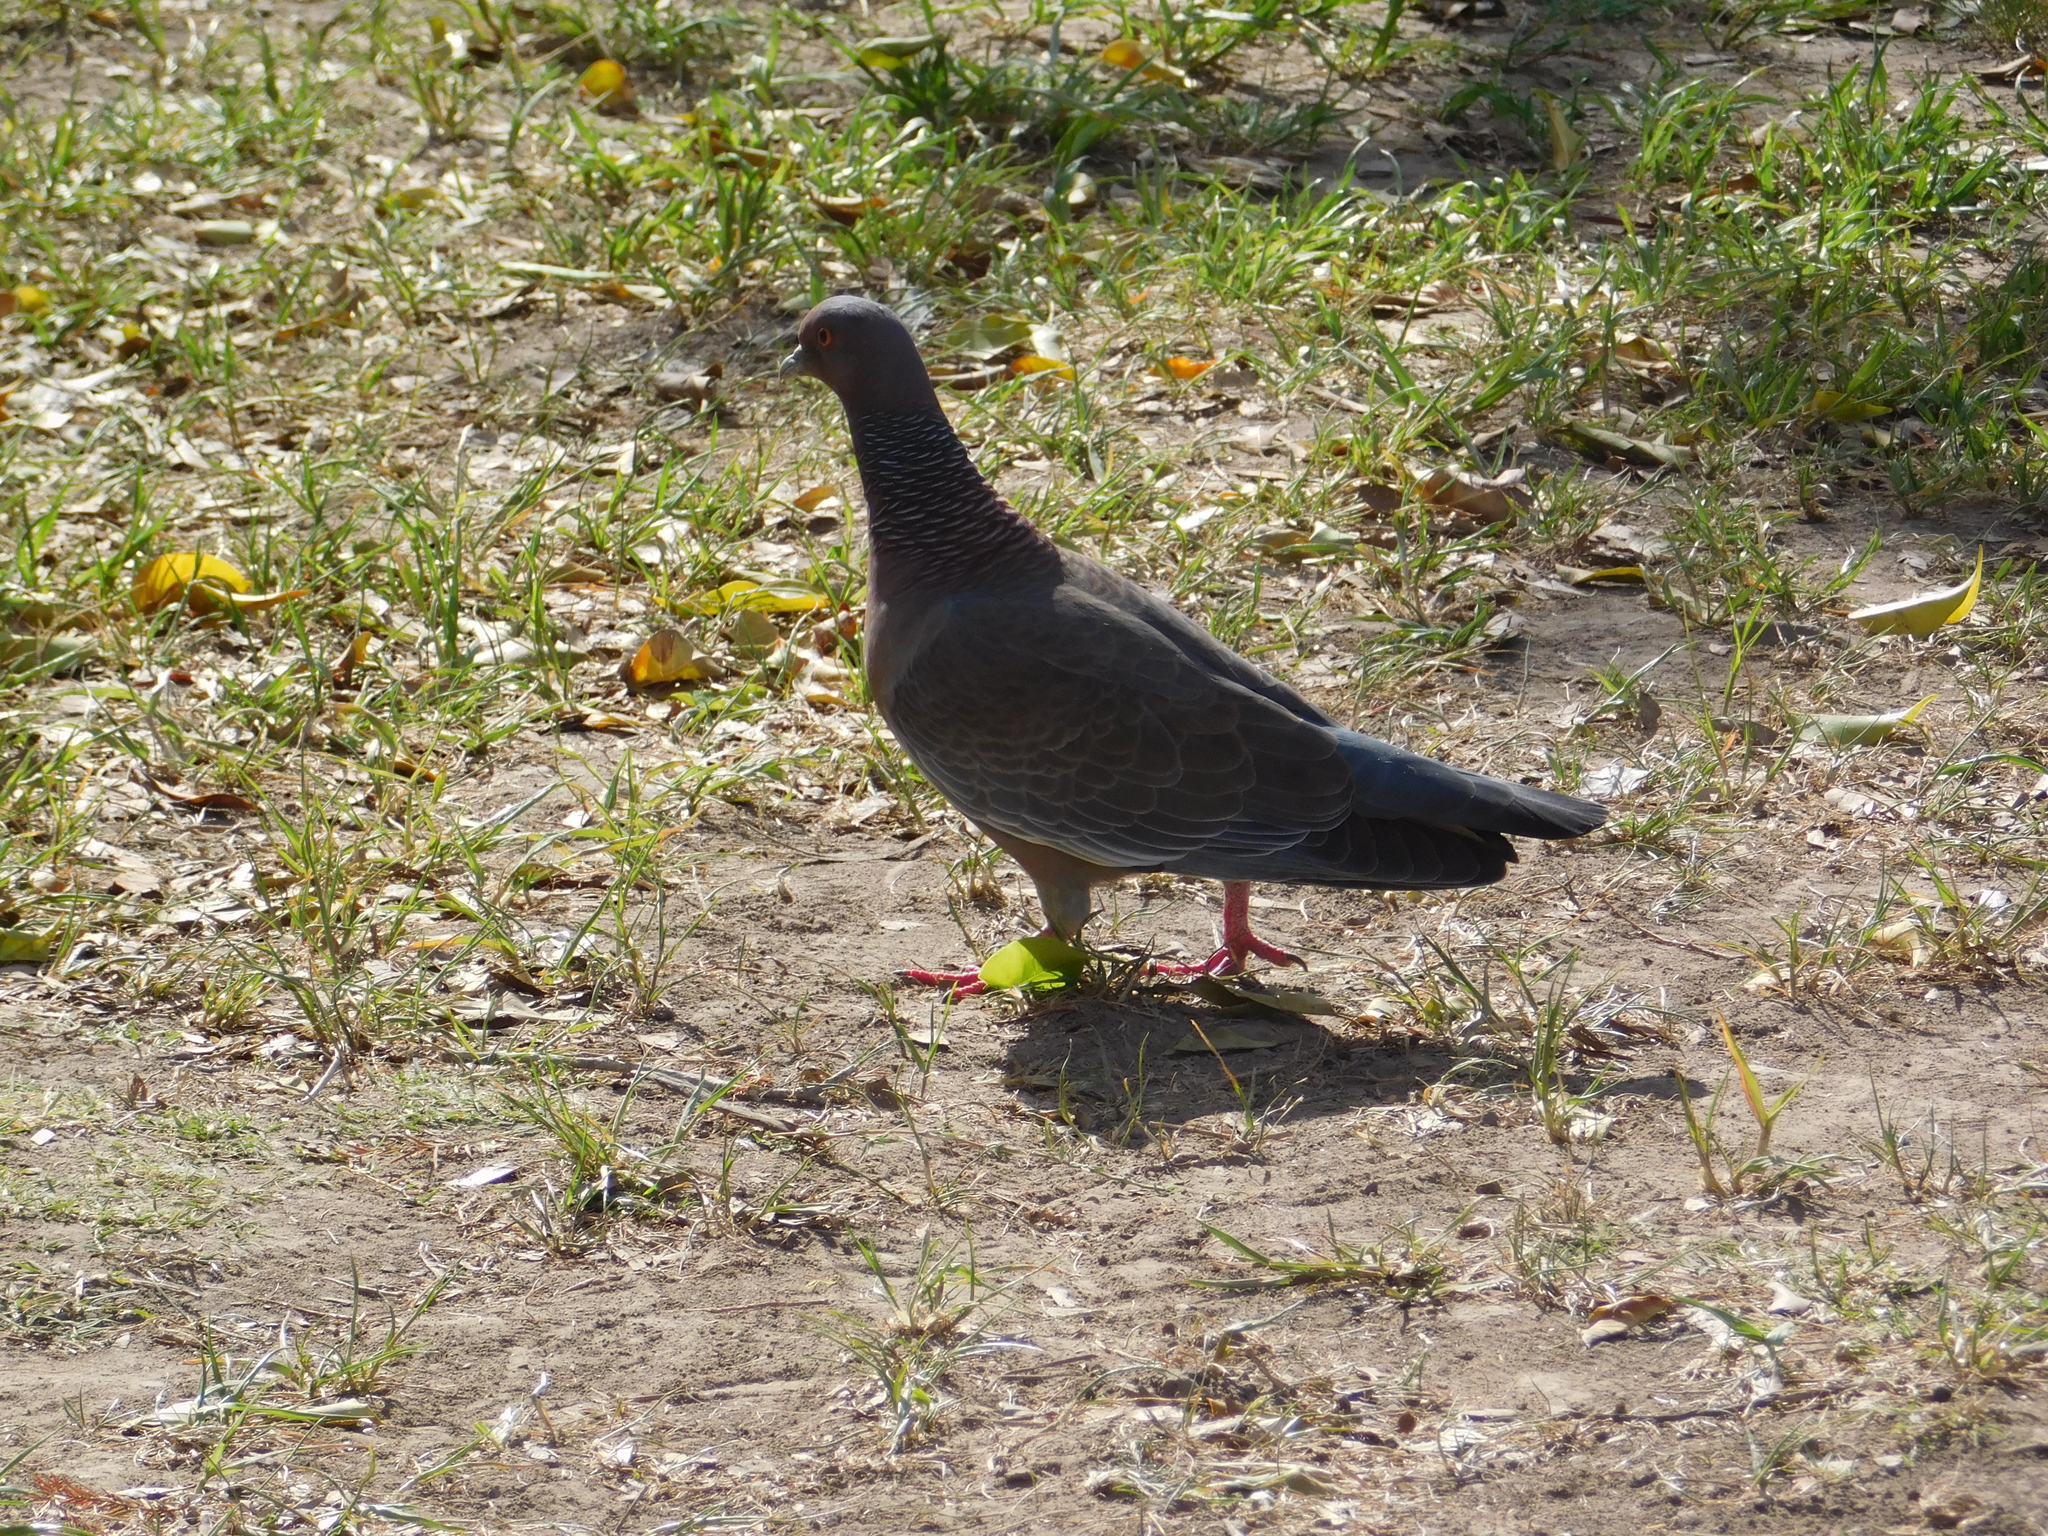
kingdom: Animalia
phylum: Chordata
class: Aves
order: Columbiformes
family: Columbidae
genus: Patagioenas
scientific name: Patagioenas picazuro
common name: Picazuro pigeon
